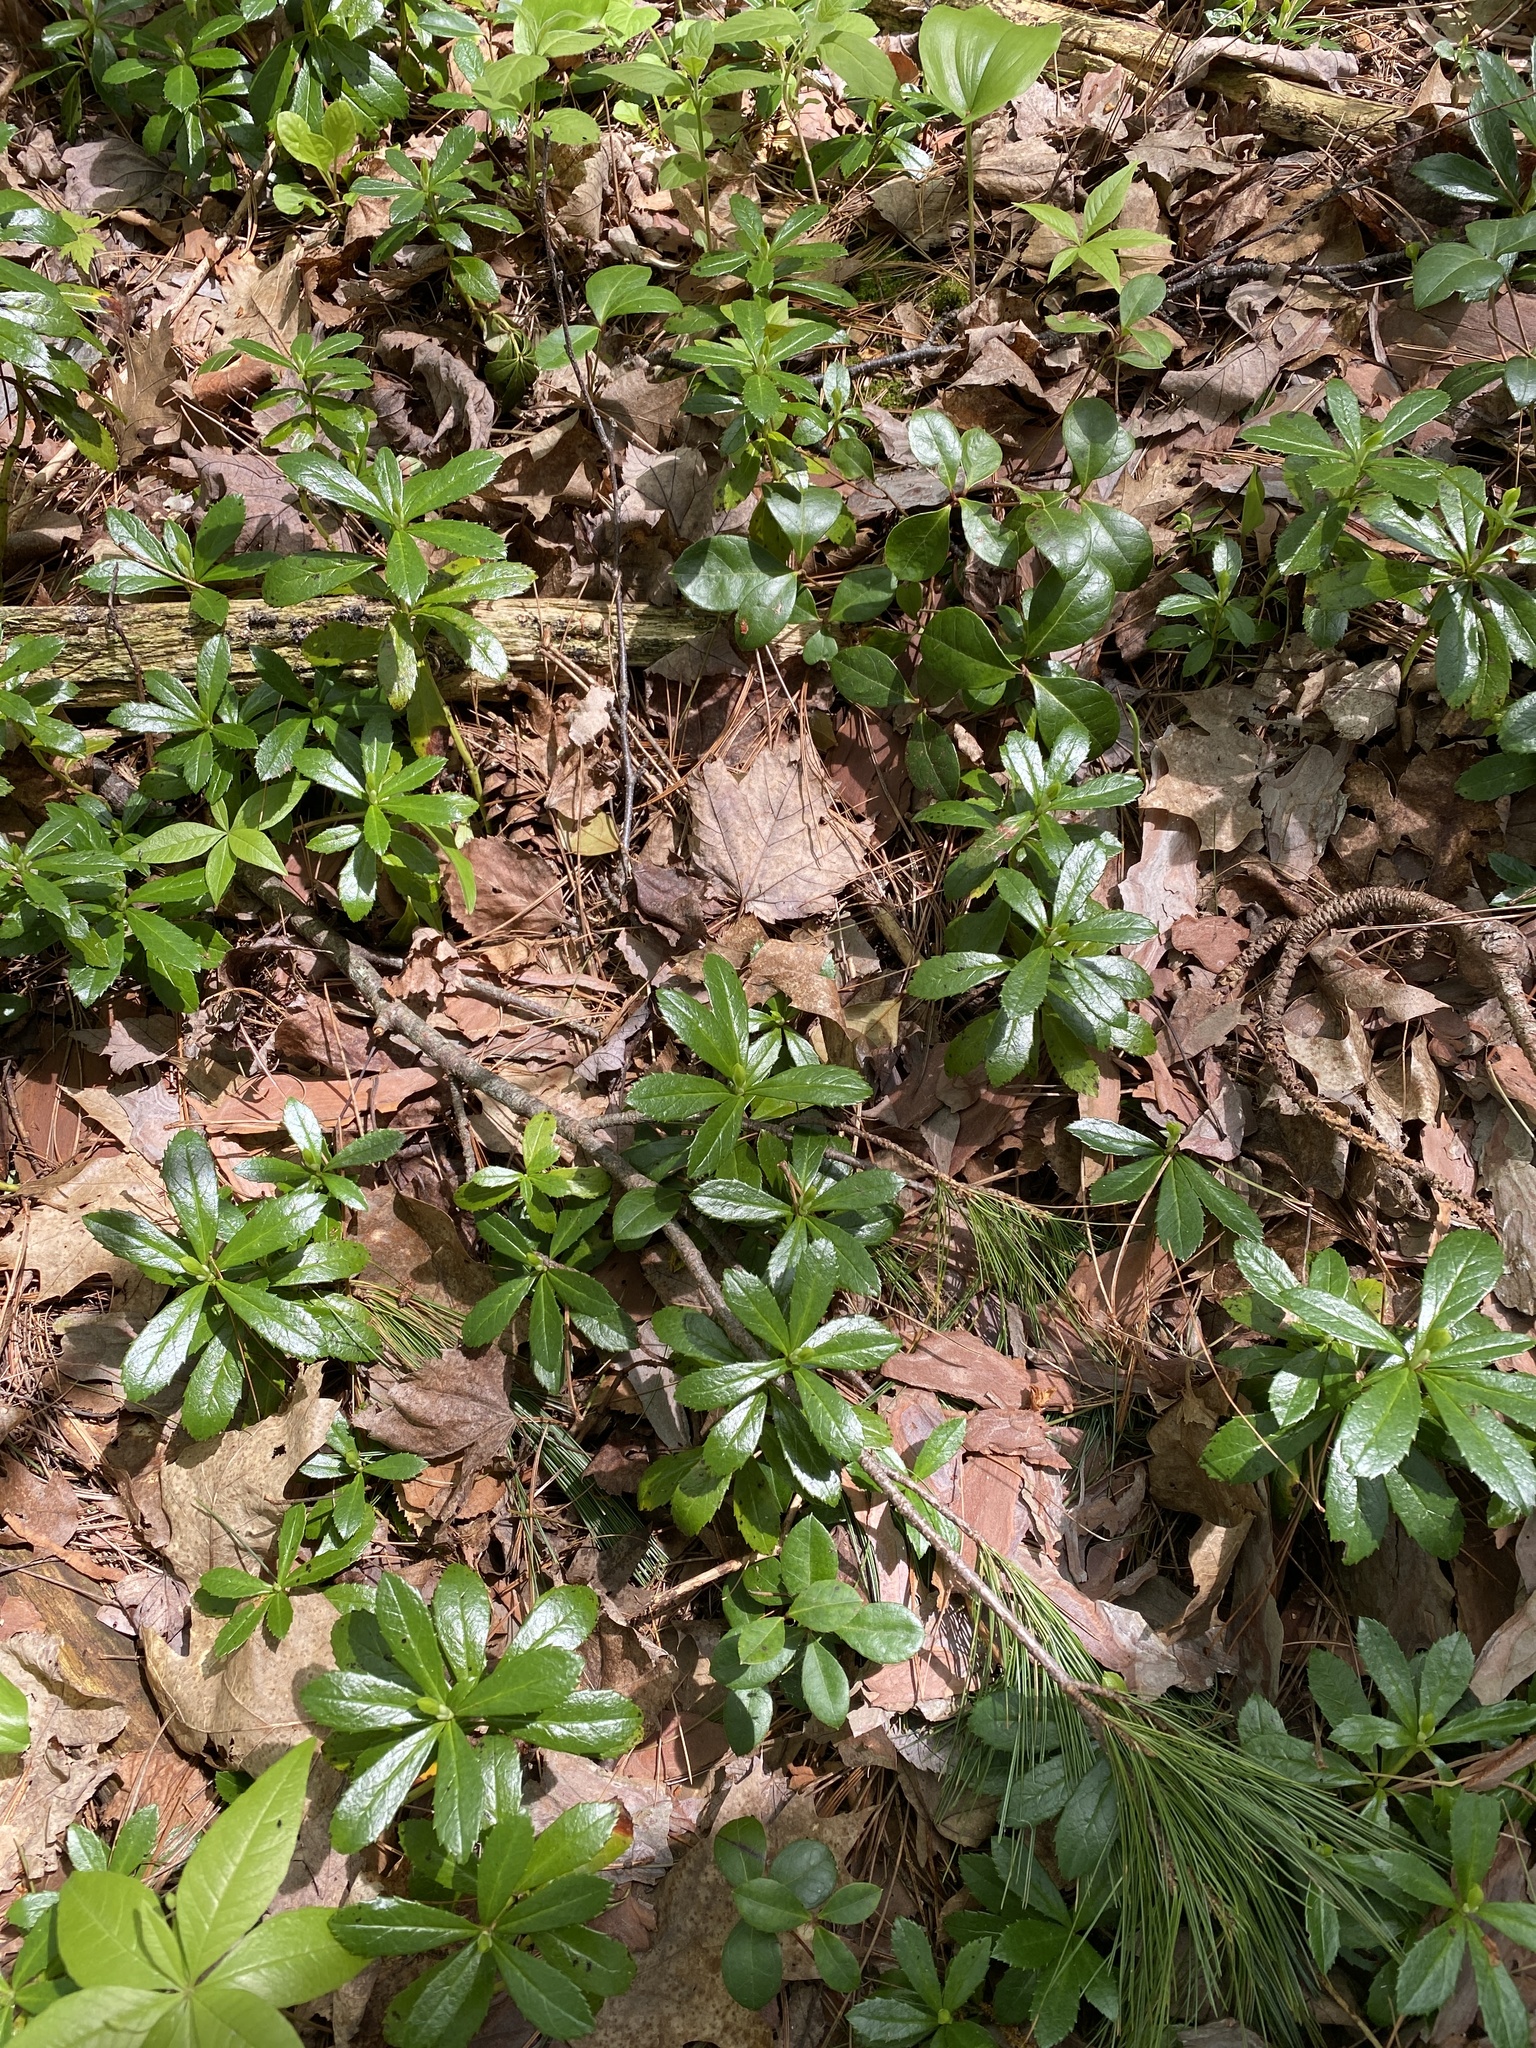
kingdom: Plantae
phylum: Tracheophyta
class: Magnoliopsida
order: Ericales
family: Ericaceae
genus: Chimaphila
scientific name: Chimaphila umbellata
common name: Pipsissewa
